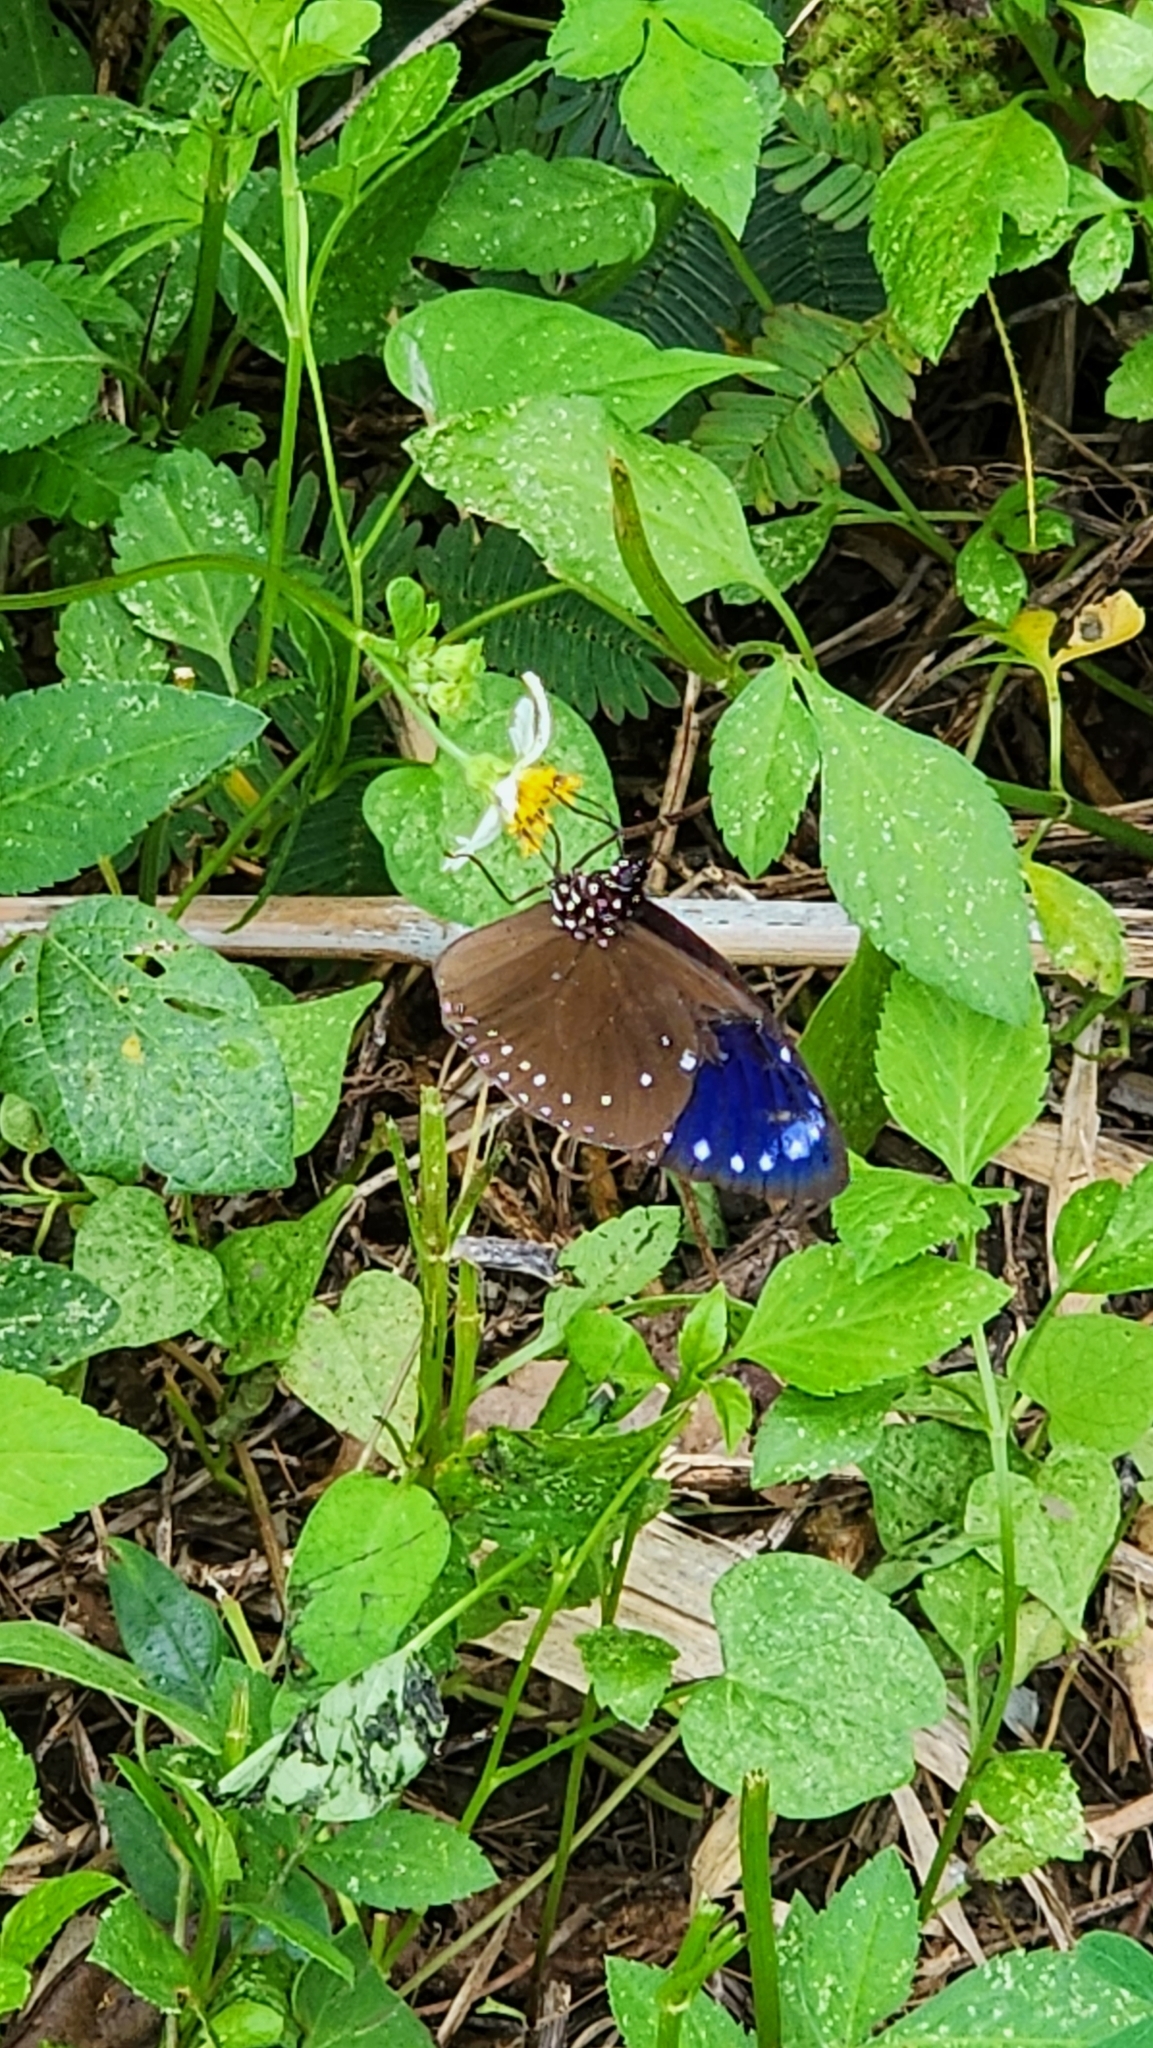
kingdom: Animalia
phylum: Arthropoda
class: Insecta
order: Lepidoptera
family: Nymphalidae
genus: Euploea
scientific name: Euploea tulliolus
